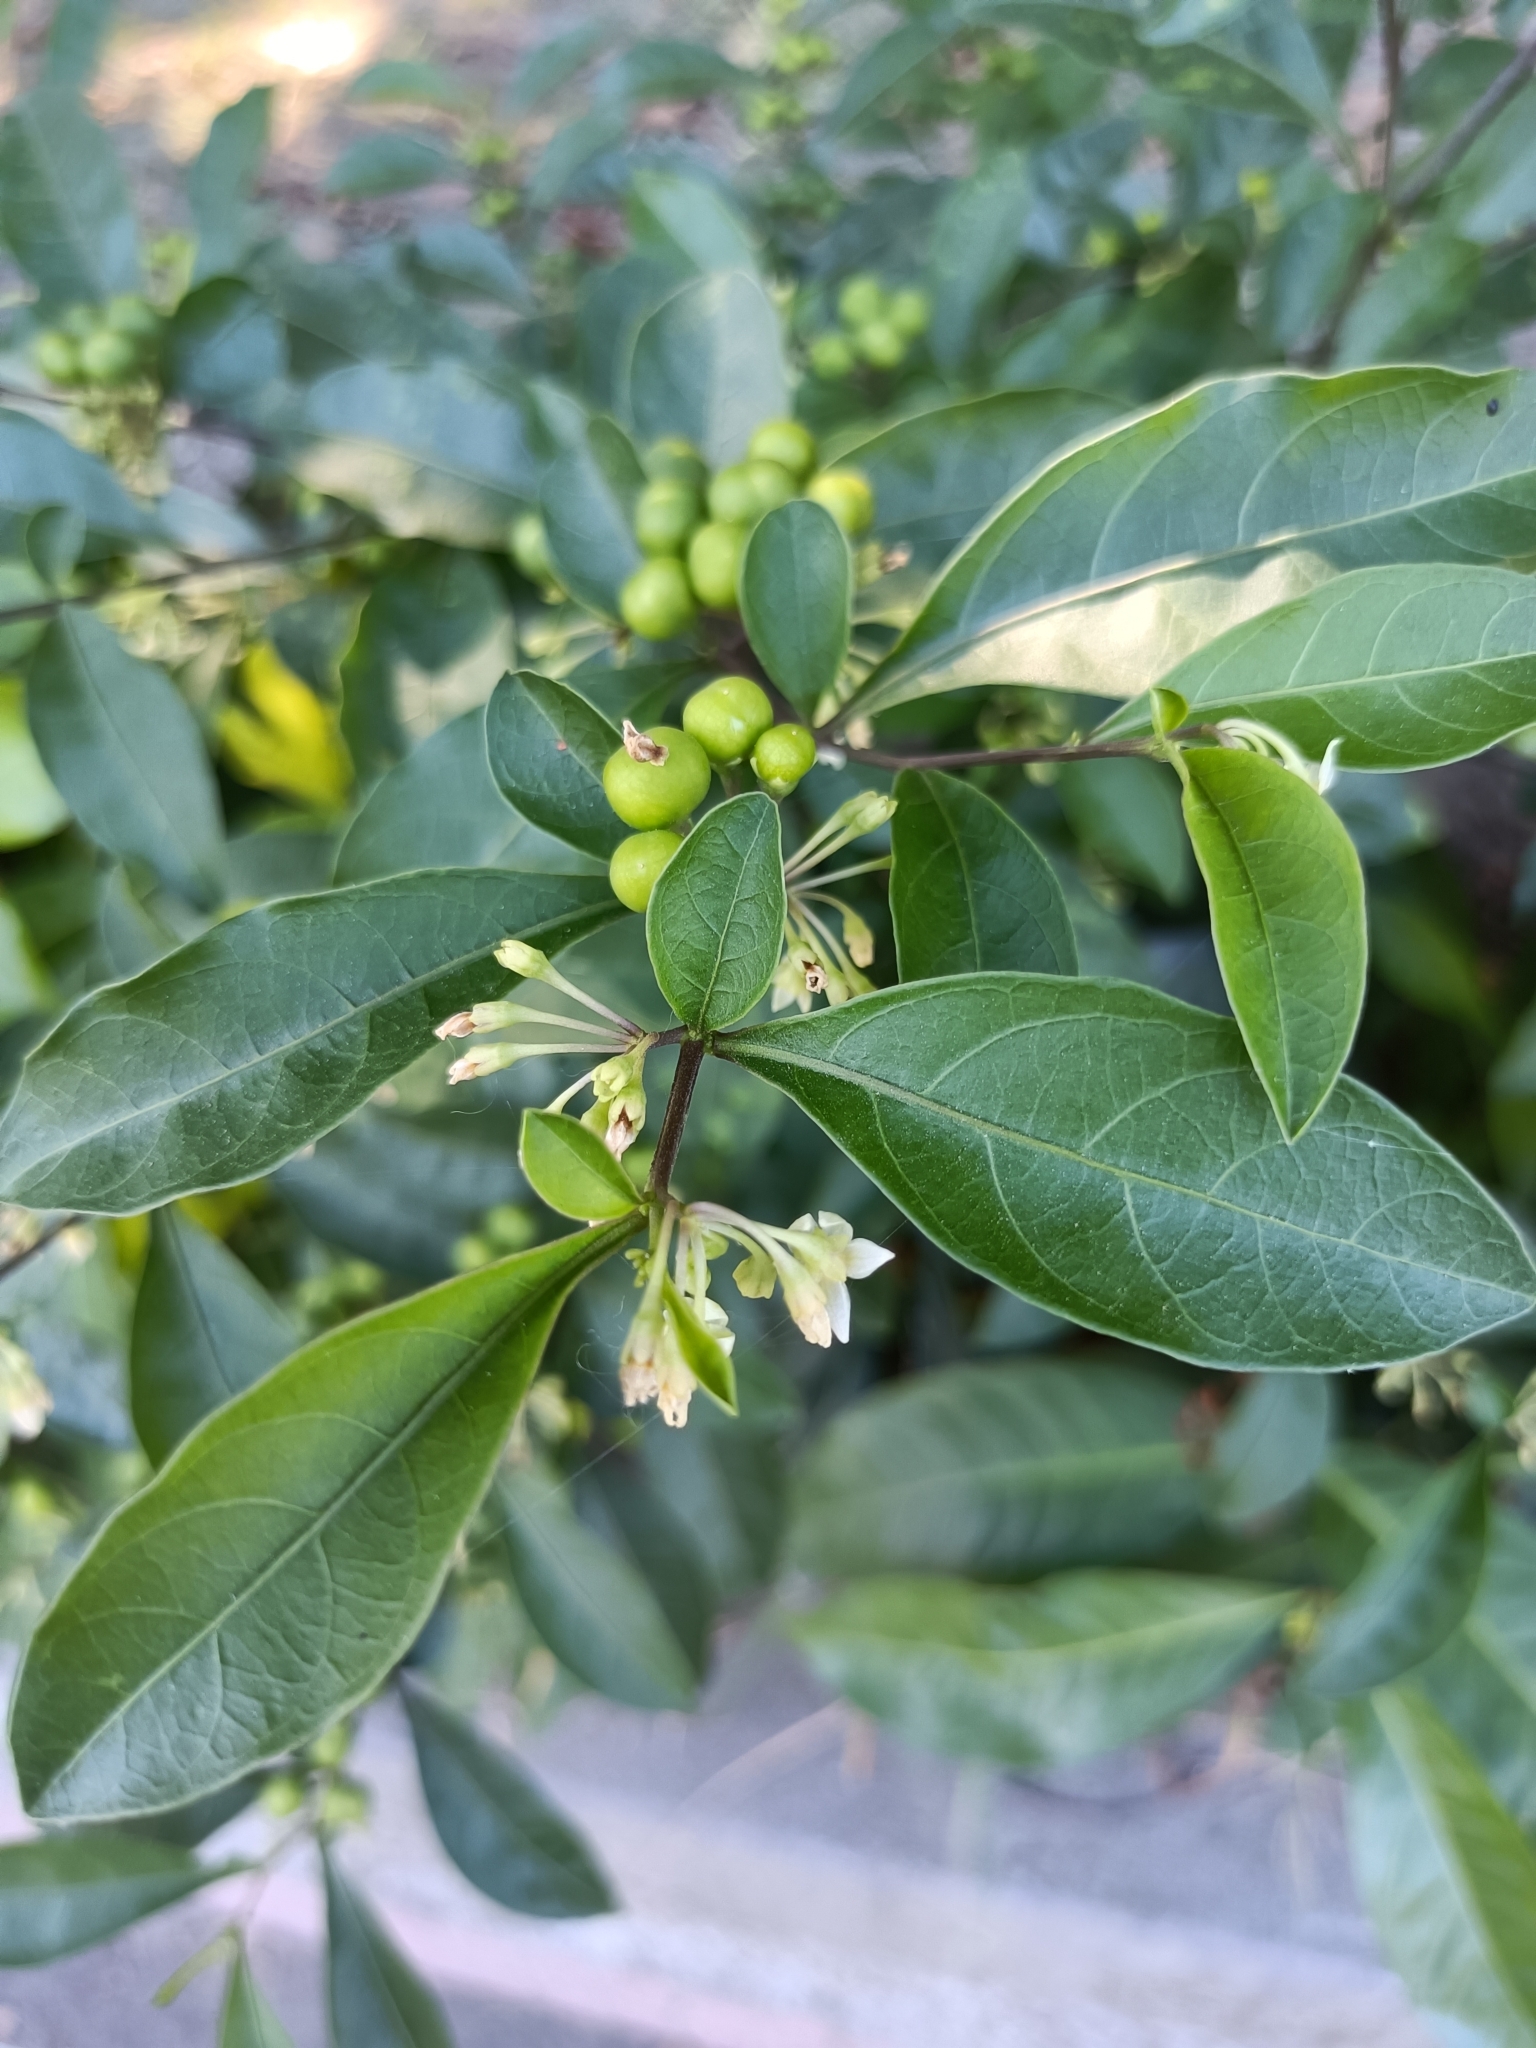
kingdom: Plantae
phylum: Tracheophyta
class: Magnoliopsida
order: Solanales
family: Solanaceae
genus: Solanum
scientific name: Solanum diphyllum
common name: Twoleaf nightshade
